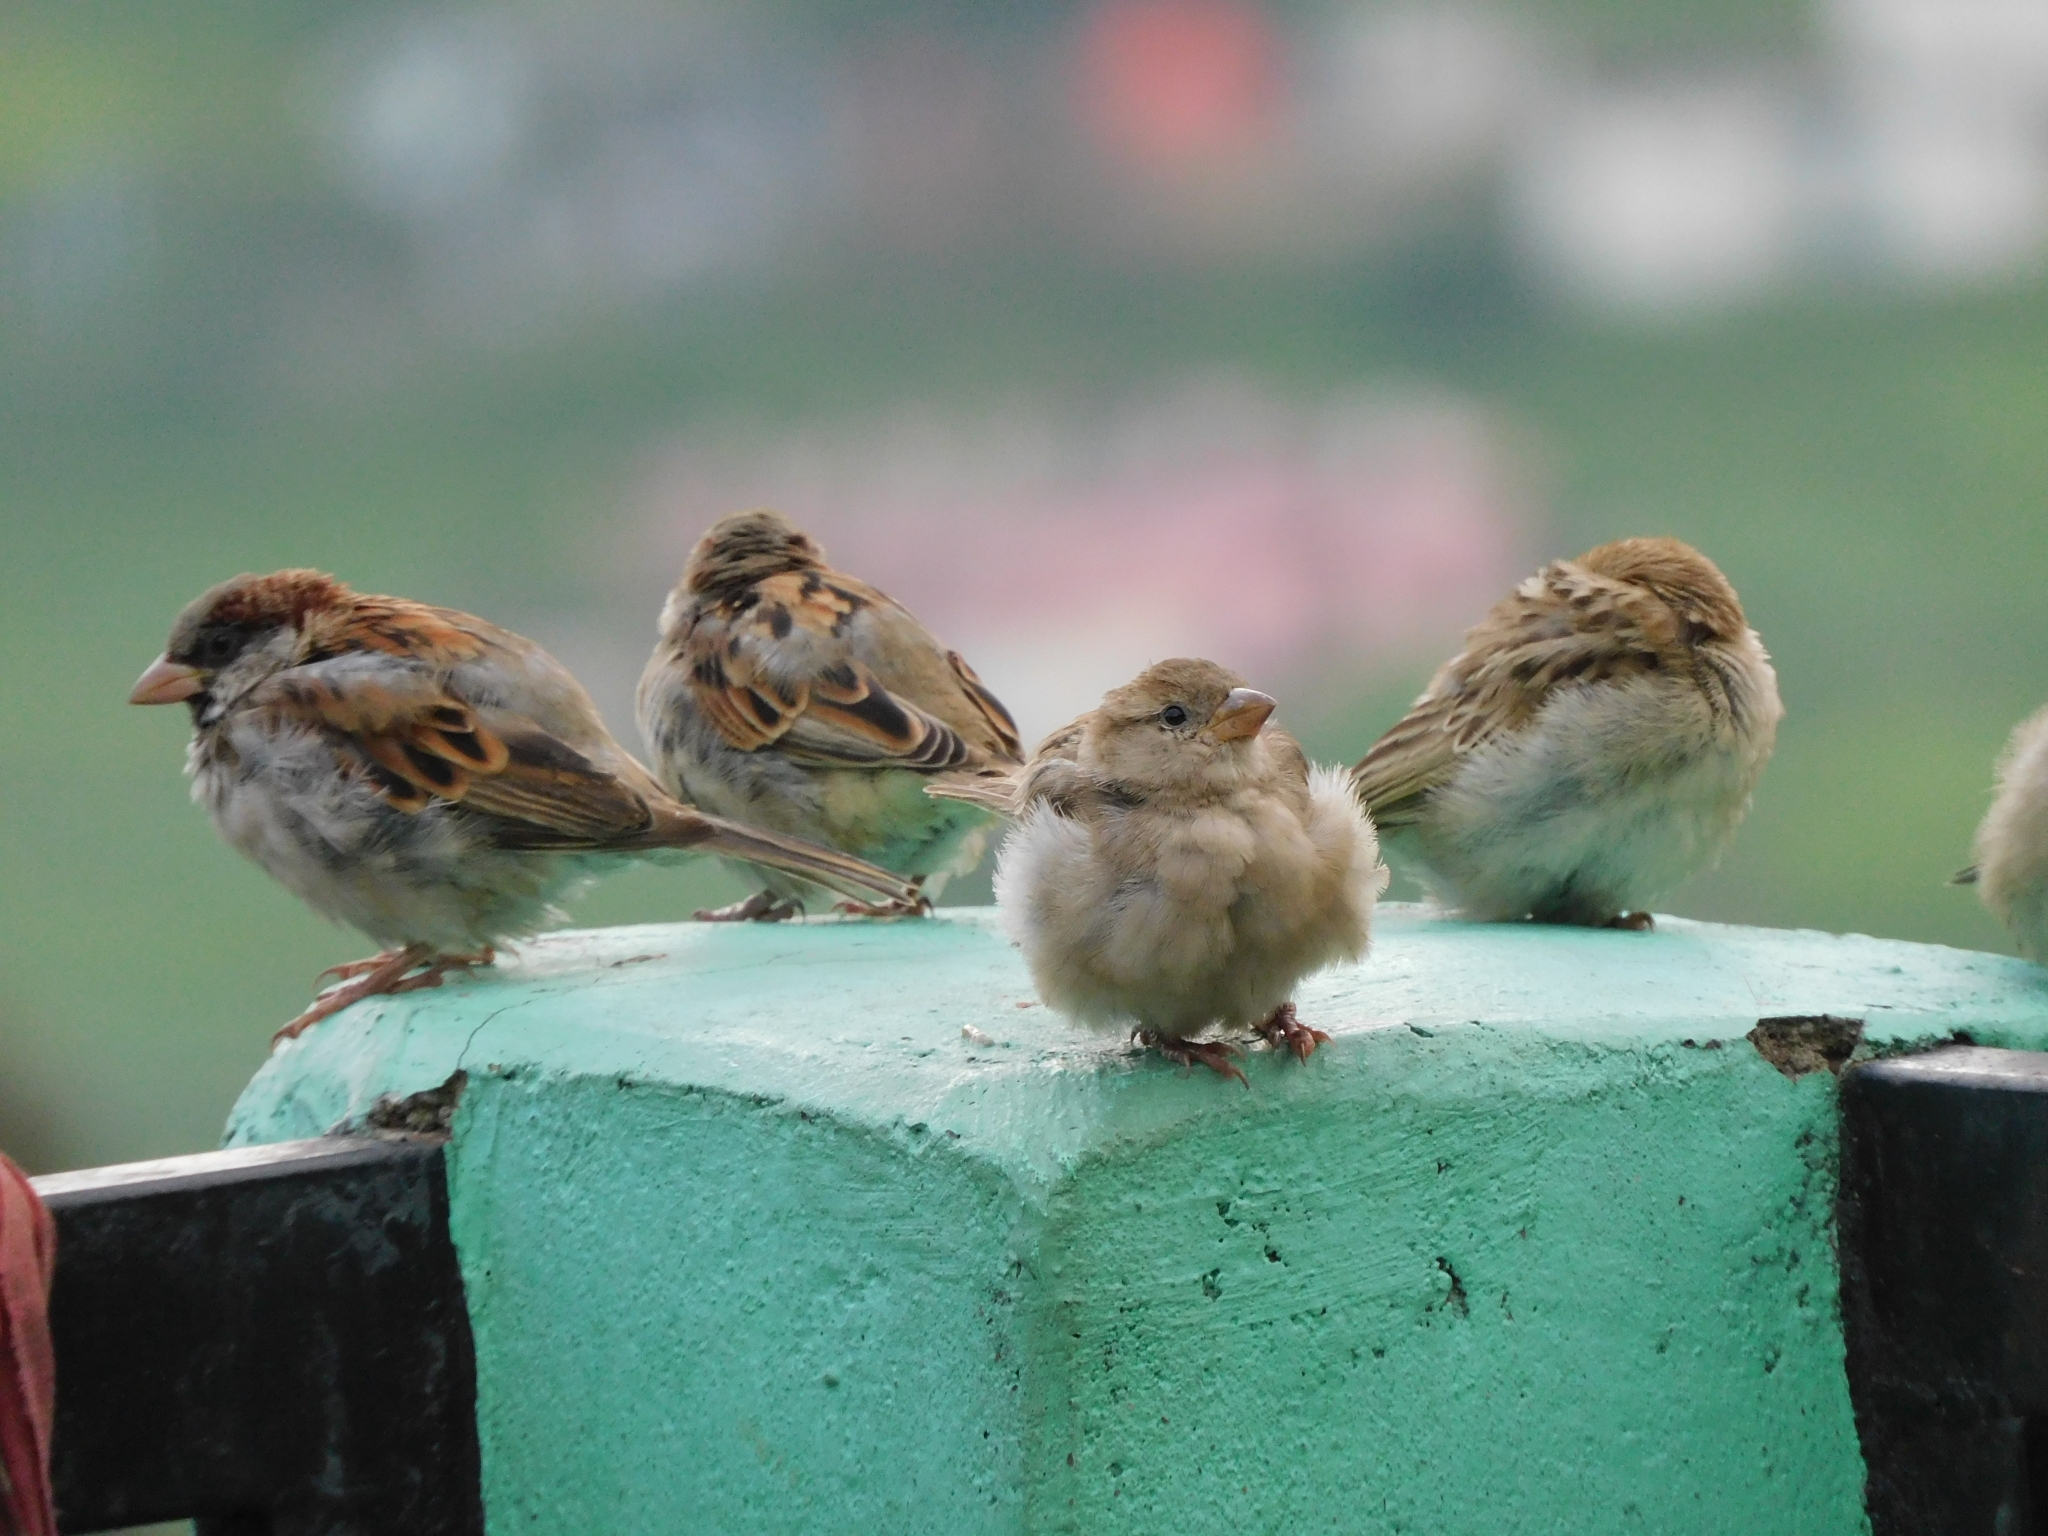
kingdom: Animalia
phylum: Chordata
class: Aves
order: Passeriformes
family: Passeridae
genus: Passer
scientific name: Passer domesticus
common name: House sparrow
